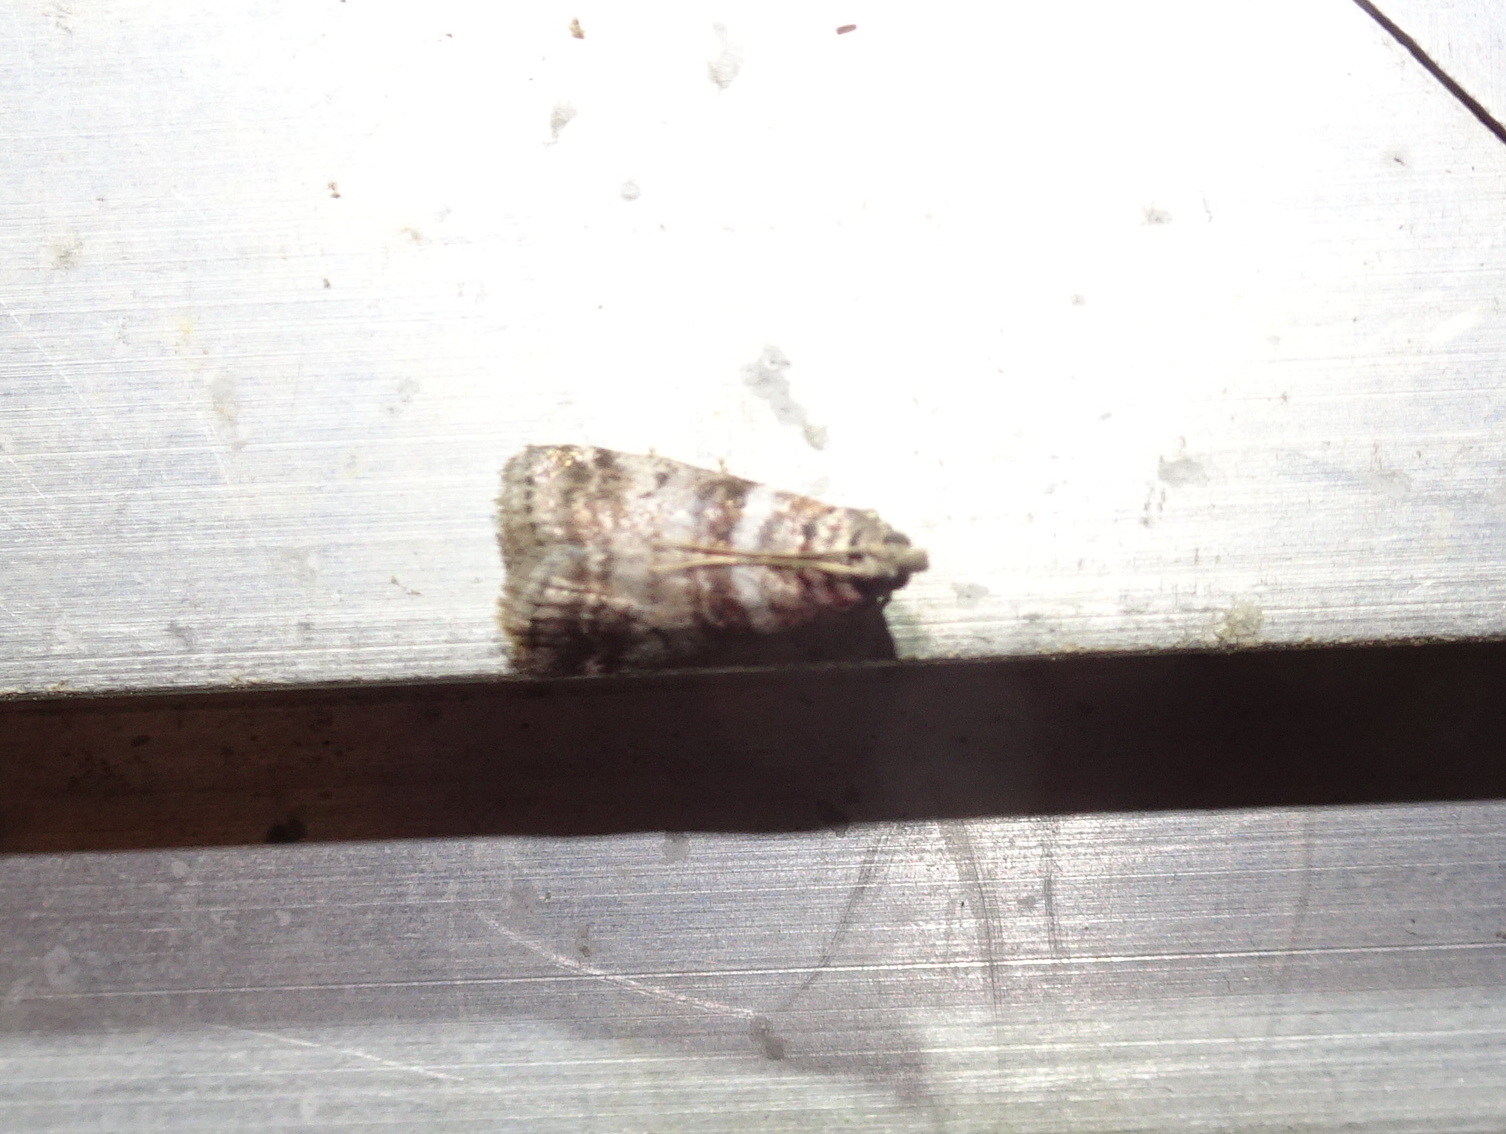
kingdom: Animalia
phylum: Arthropoda
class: Insecta
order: Lepidoptera
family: Pyralidae
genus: Sciota
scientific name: Sciota uvinella
